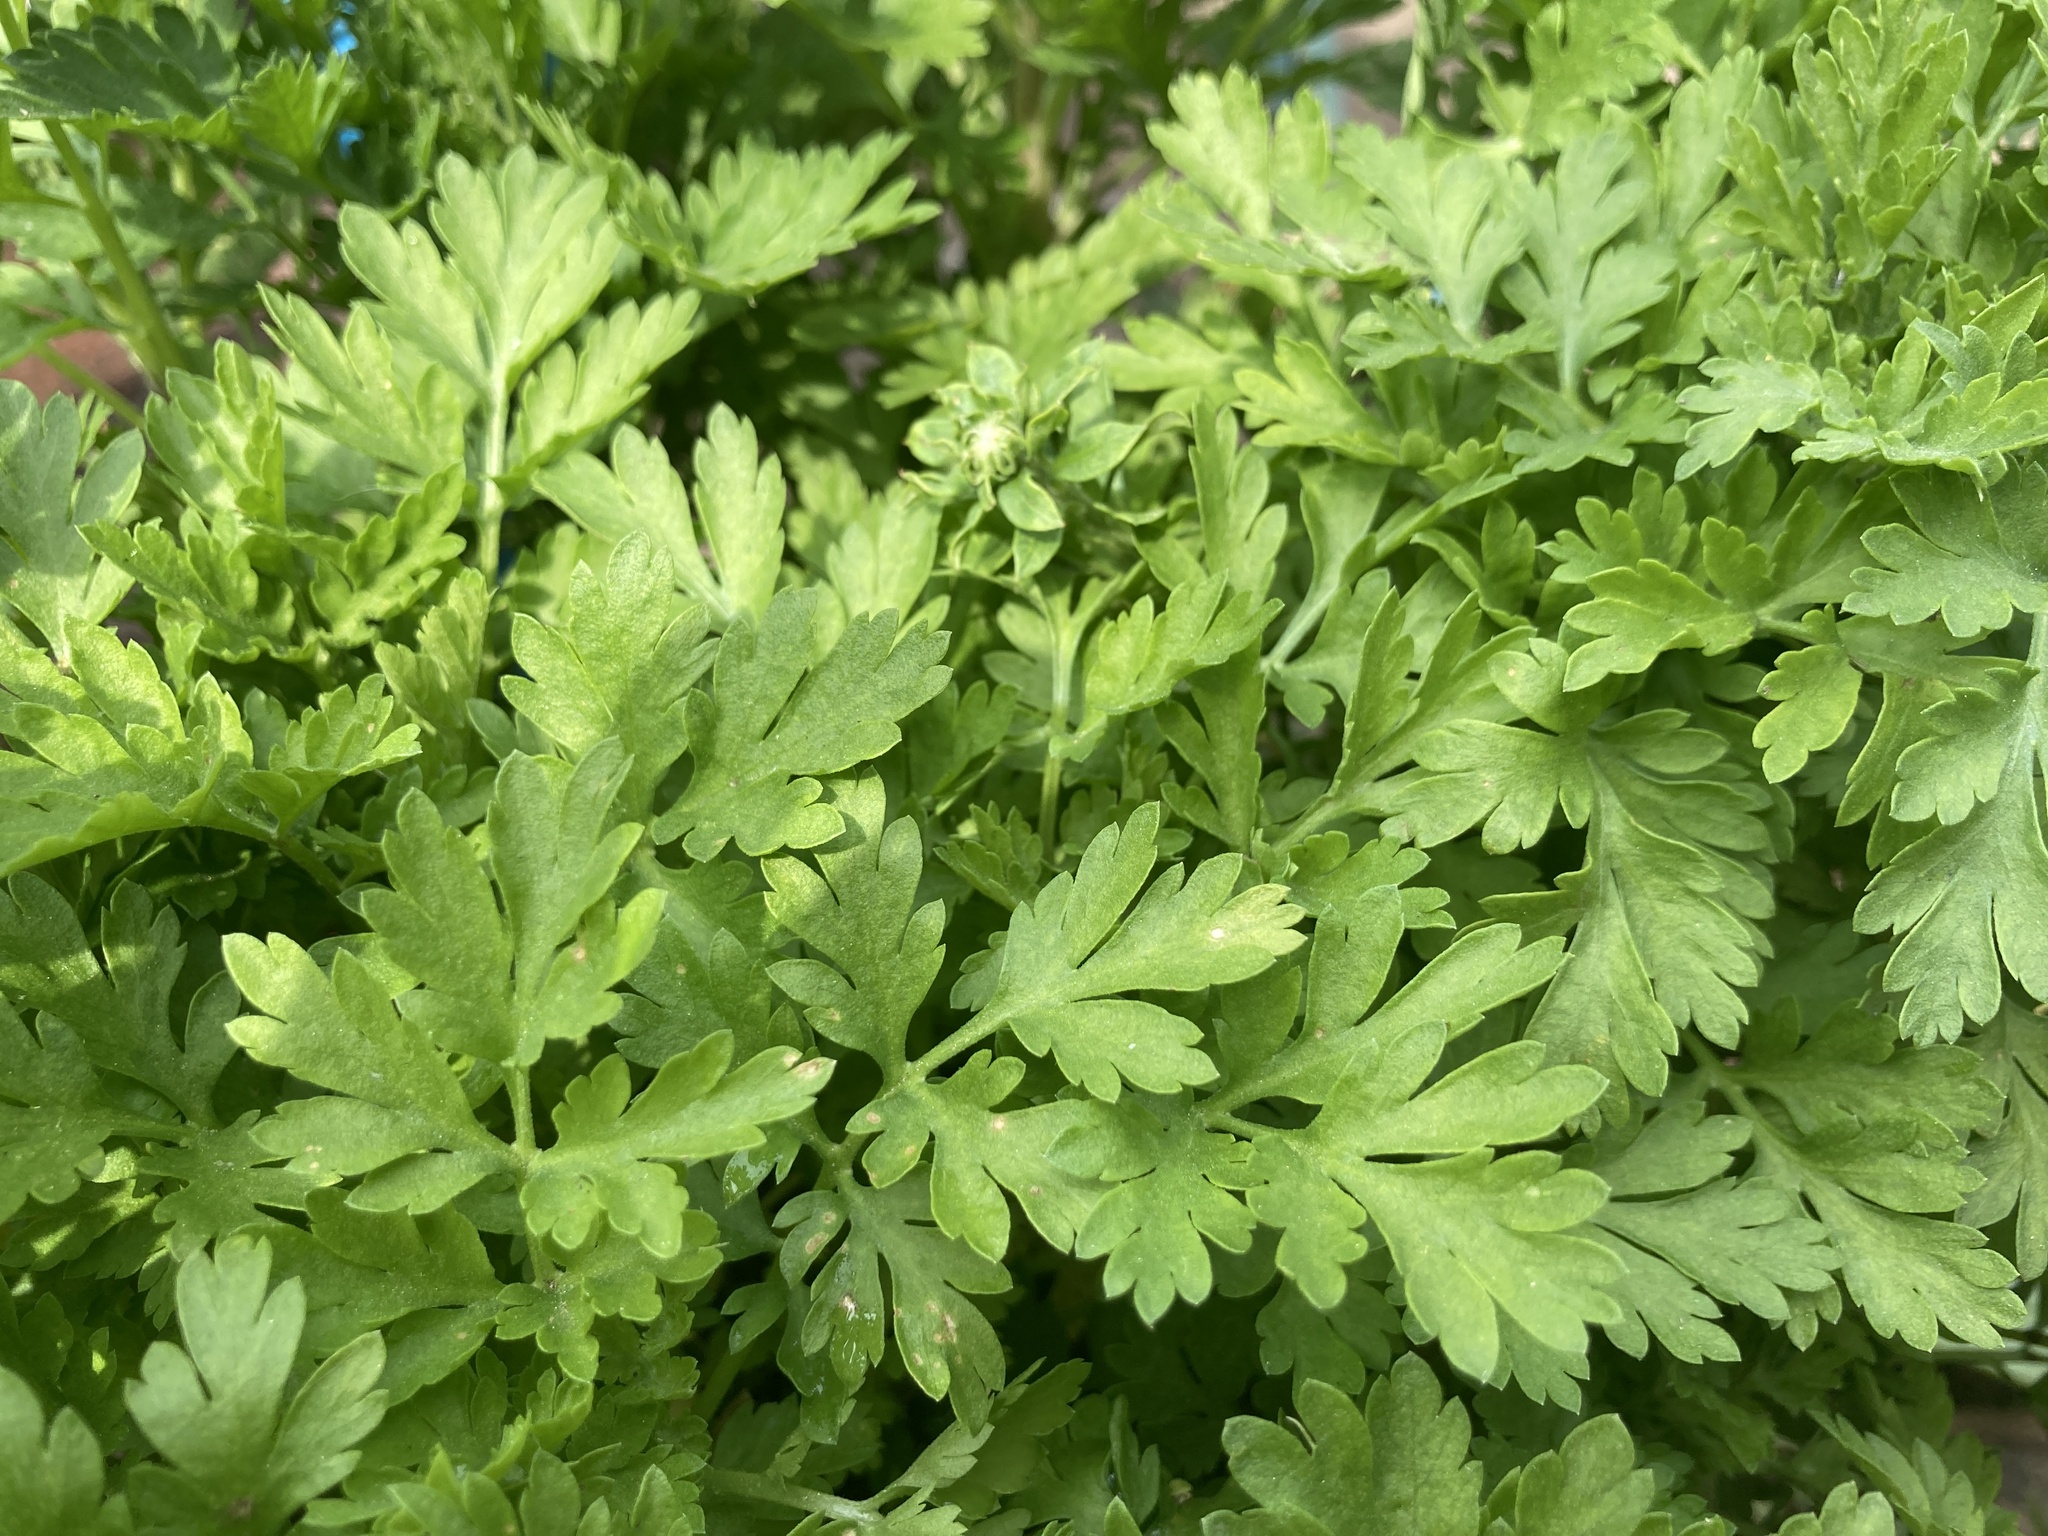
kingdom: Plantae
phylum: Tracheophyta
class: Magnoliopsida
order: Asterales
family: Asteraceae
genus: Tanacetum
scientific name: Tanacetum parthenium
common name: Feverfew
